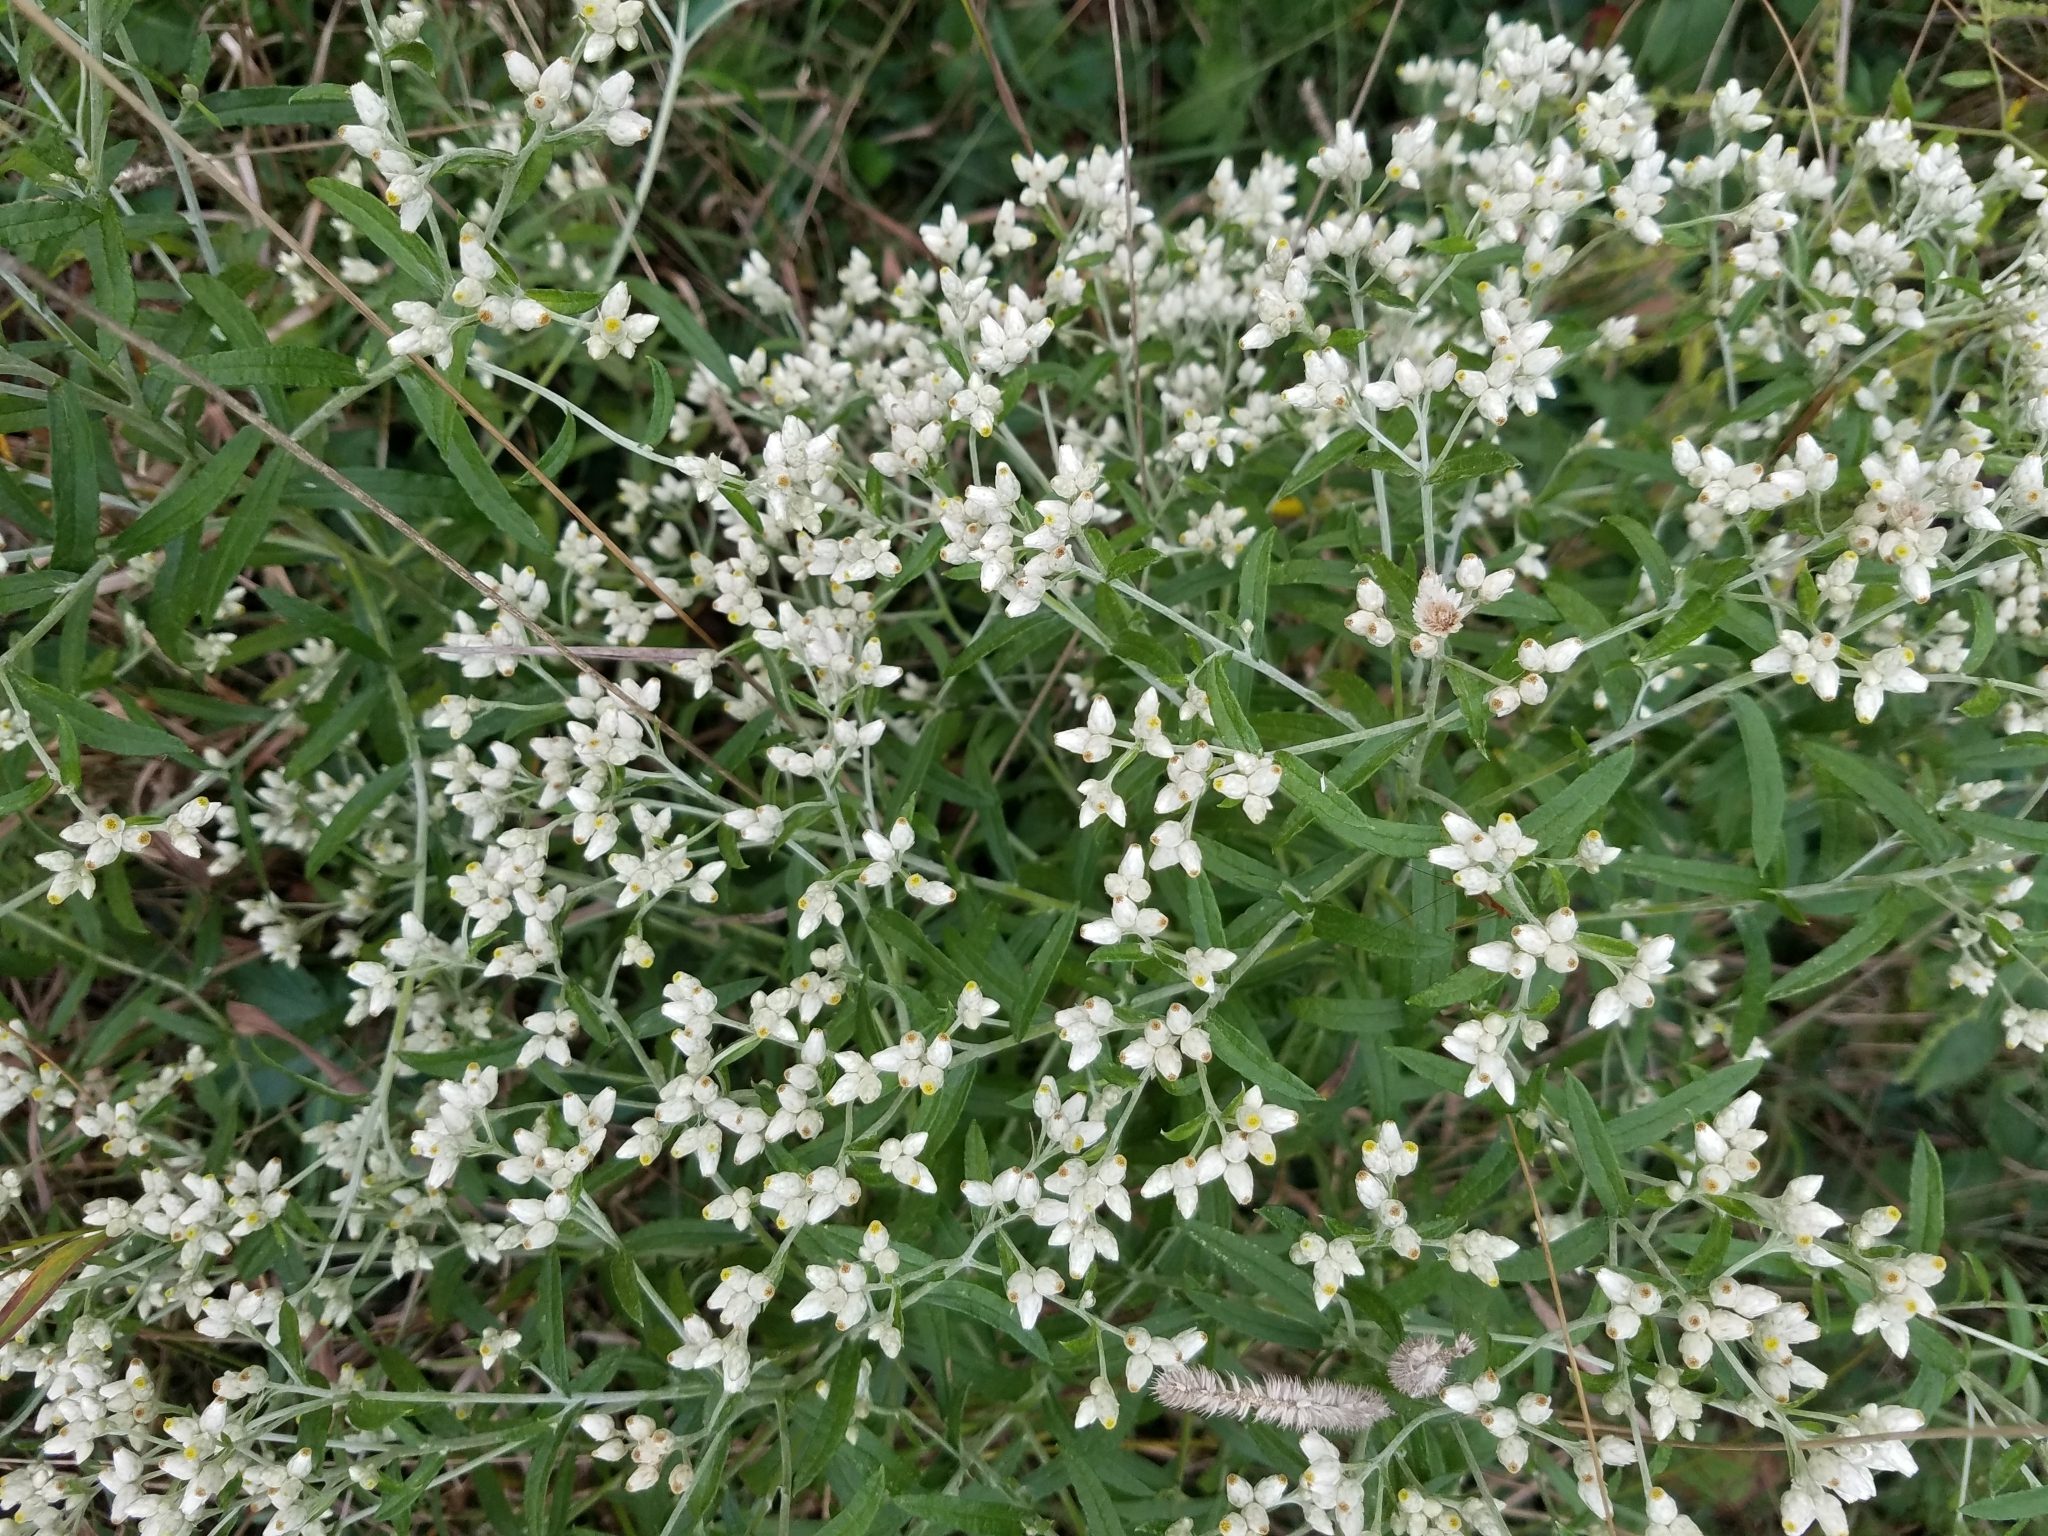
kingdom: Plantae
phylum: Tracheophyta
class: Magnoliopsida
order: Asterales
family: Asteraceae
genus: Pseudognaphalium
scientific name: Pseudognaphalium obtusifolium
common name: Eastern rabbit-tobacco
